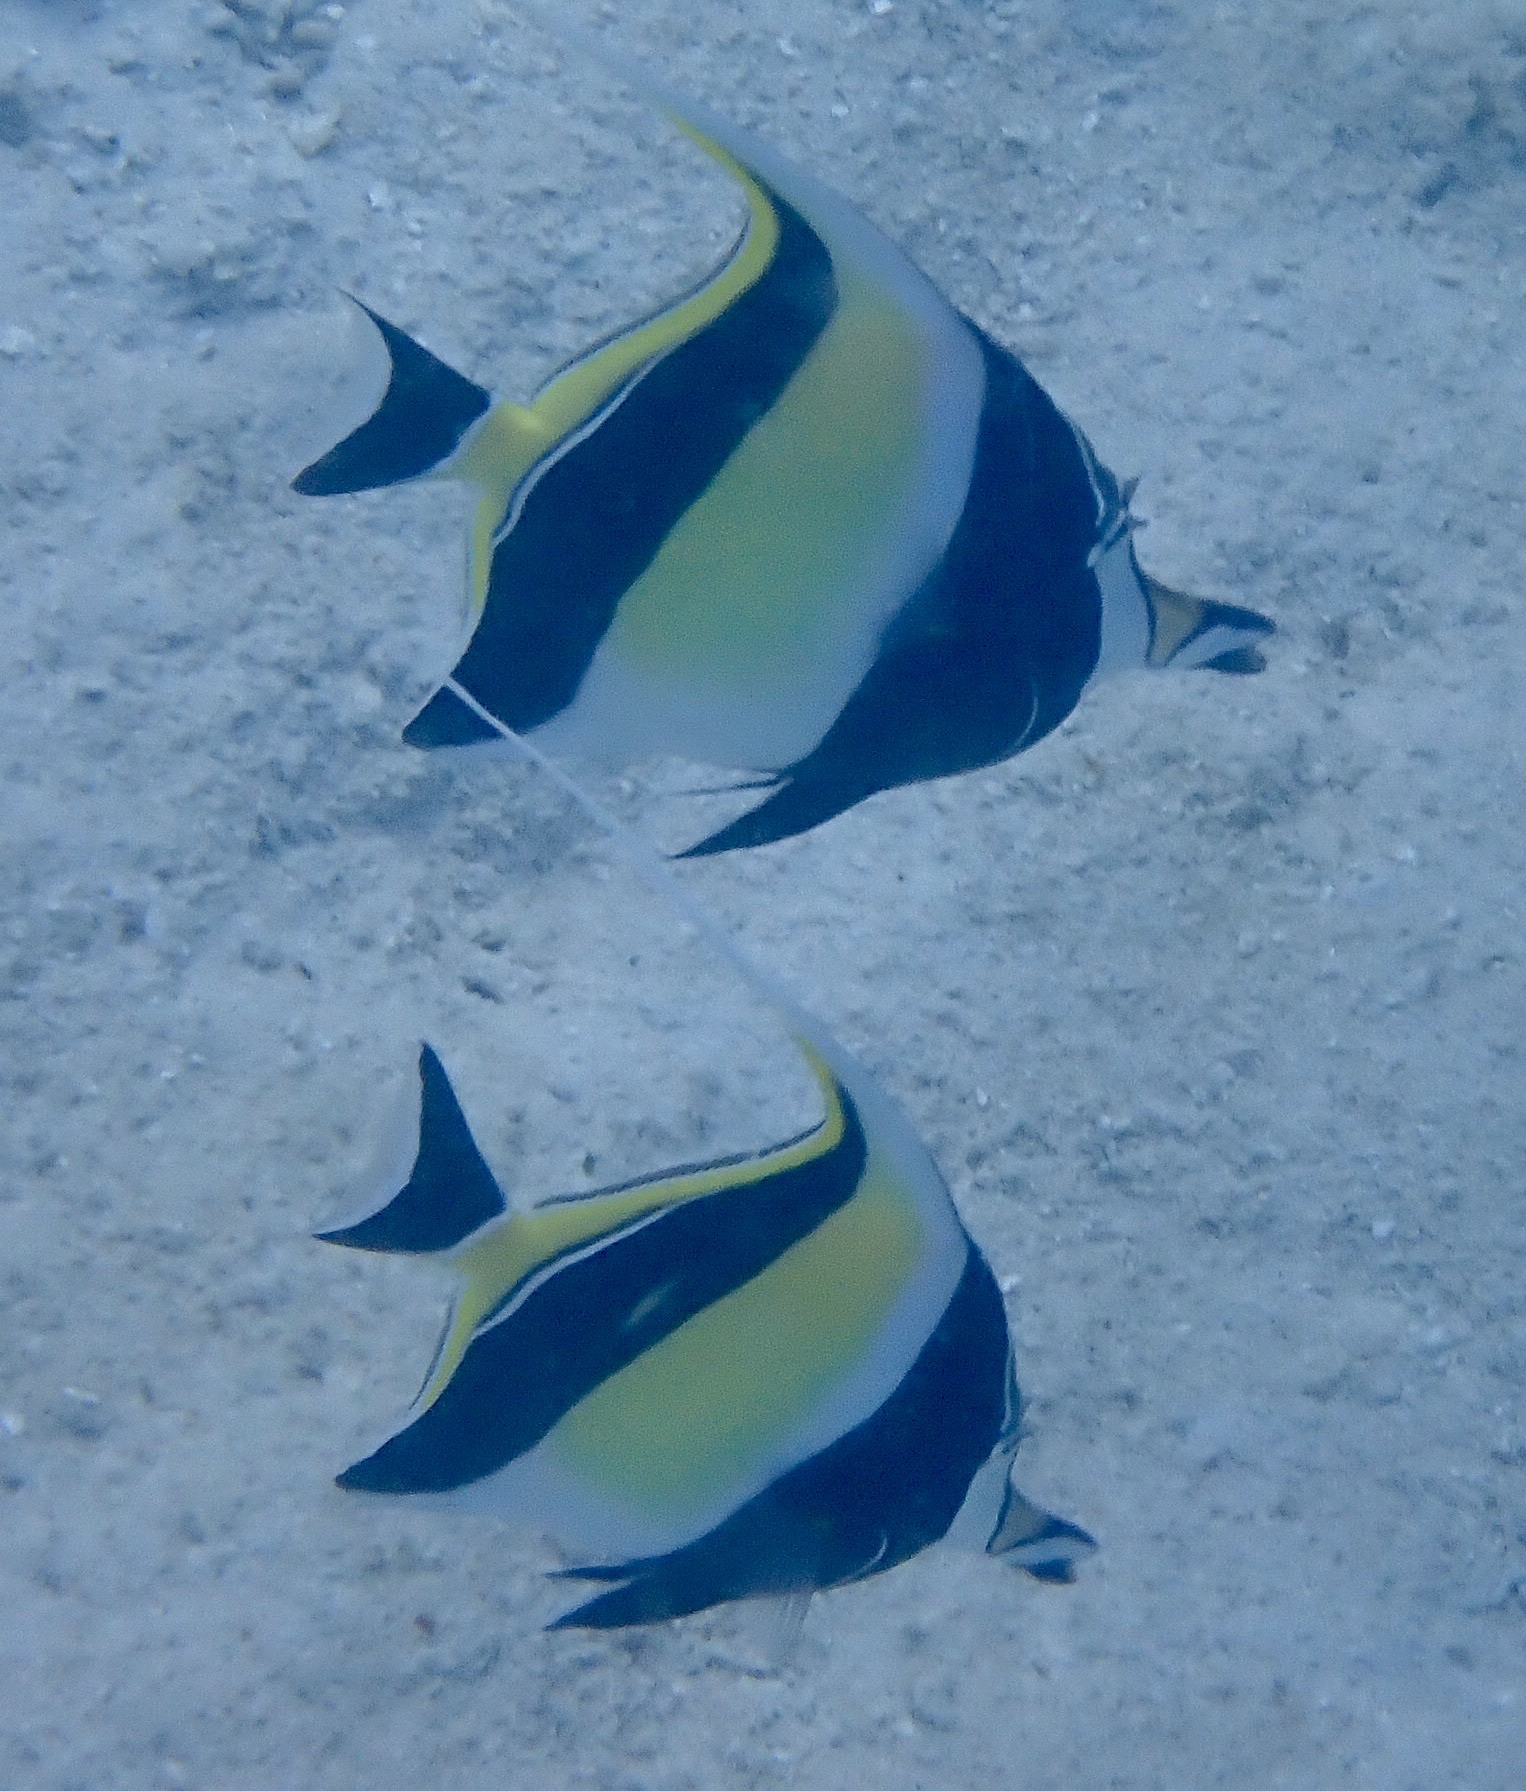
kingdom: Animalia
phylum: Chordata
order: Perciformes
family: Zanclidae
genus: Zanclus
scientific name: Zanclus cornutus
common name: Moorish idol
